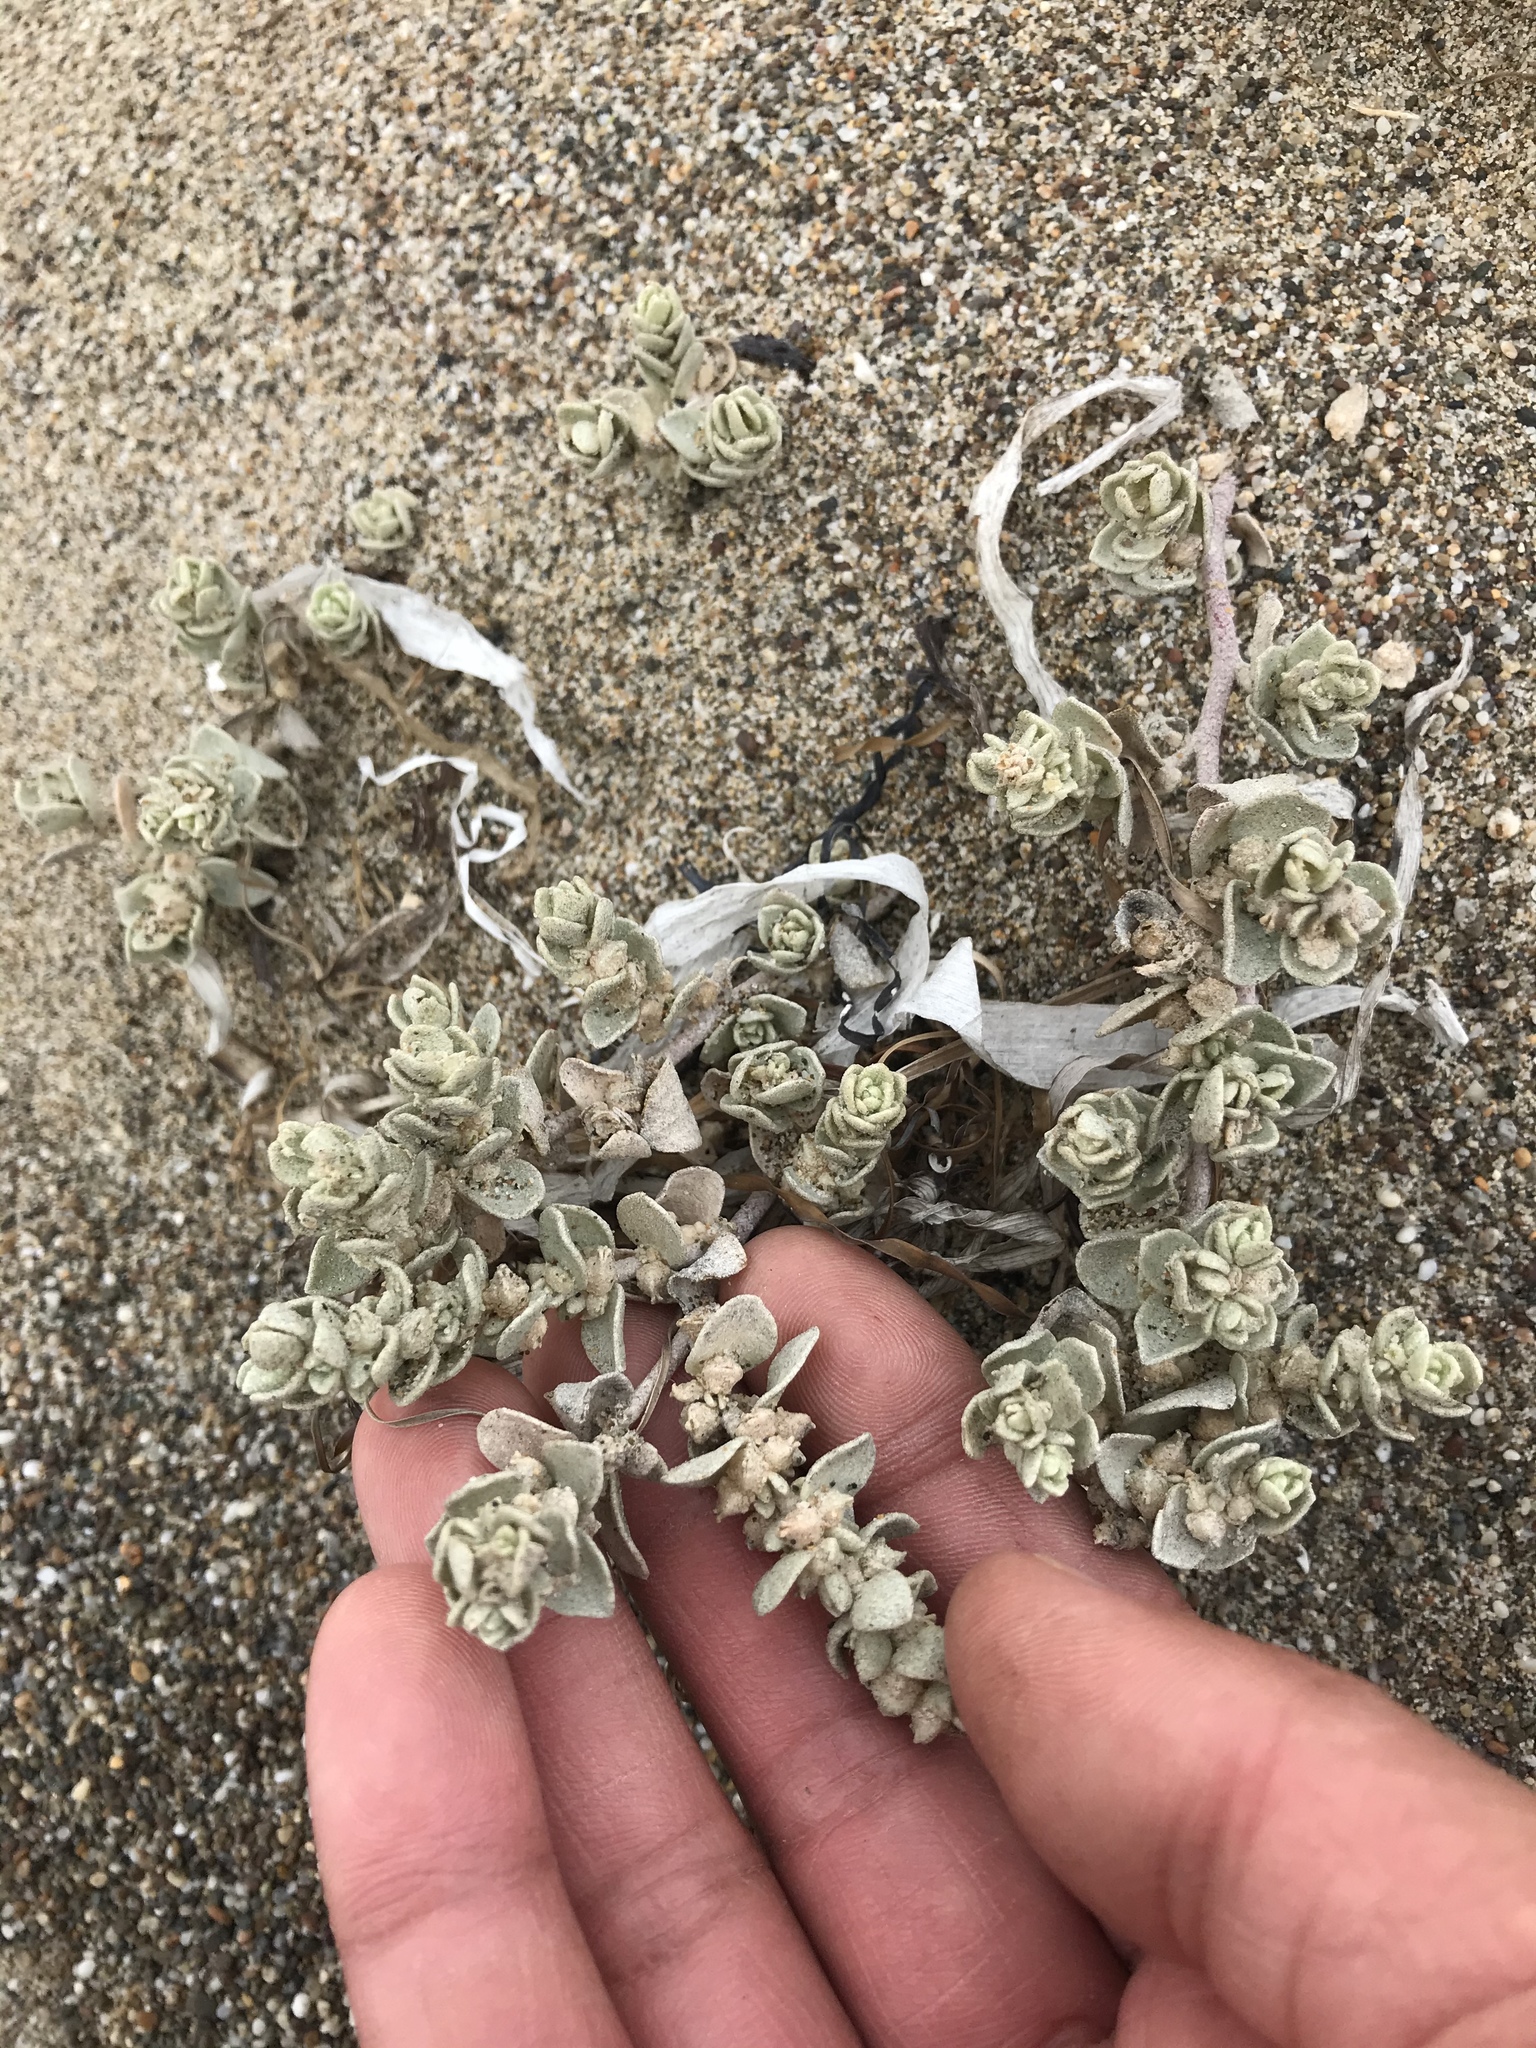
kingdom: Plantae
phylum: Tracheophyta
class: Magnoliopsida
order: Caryophyllales
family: Amaranthaceae
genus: Atriplex
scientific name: Atriplex leucophylla
